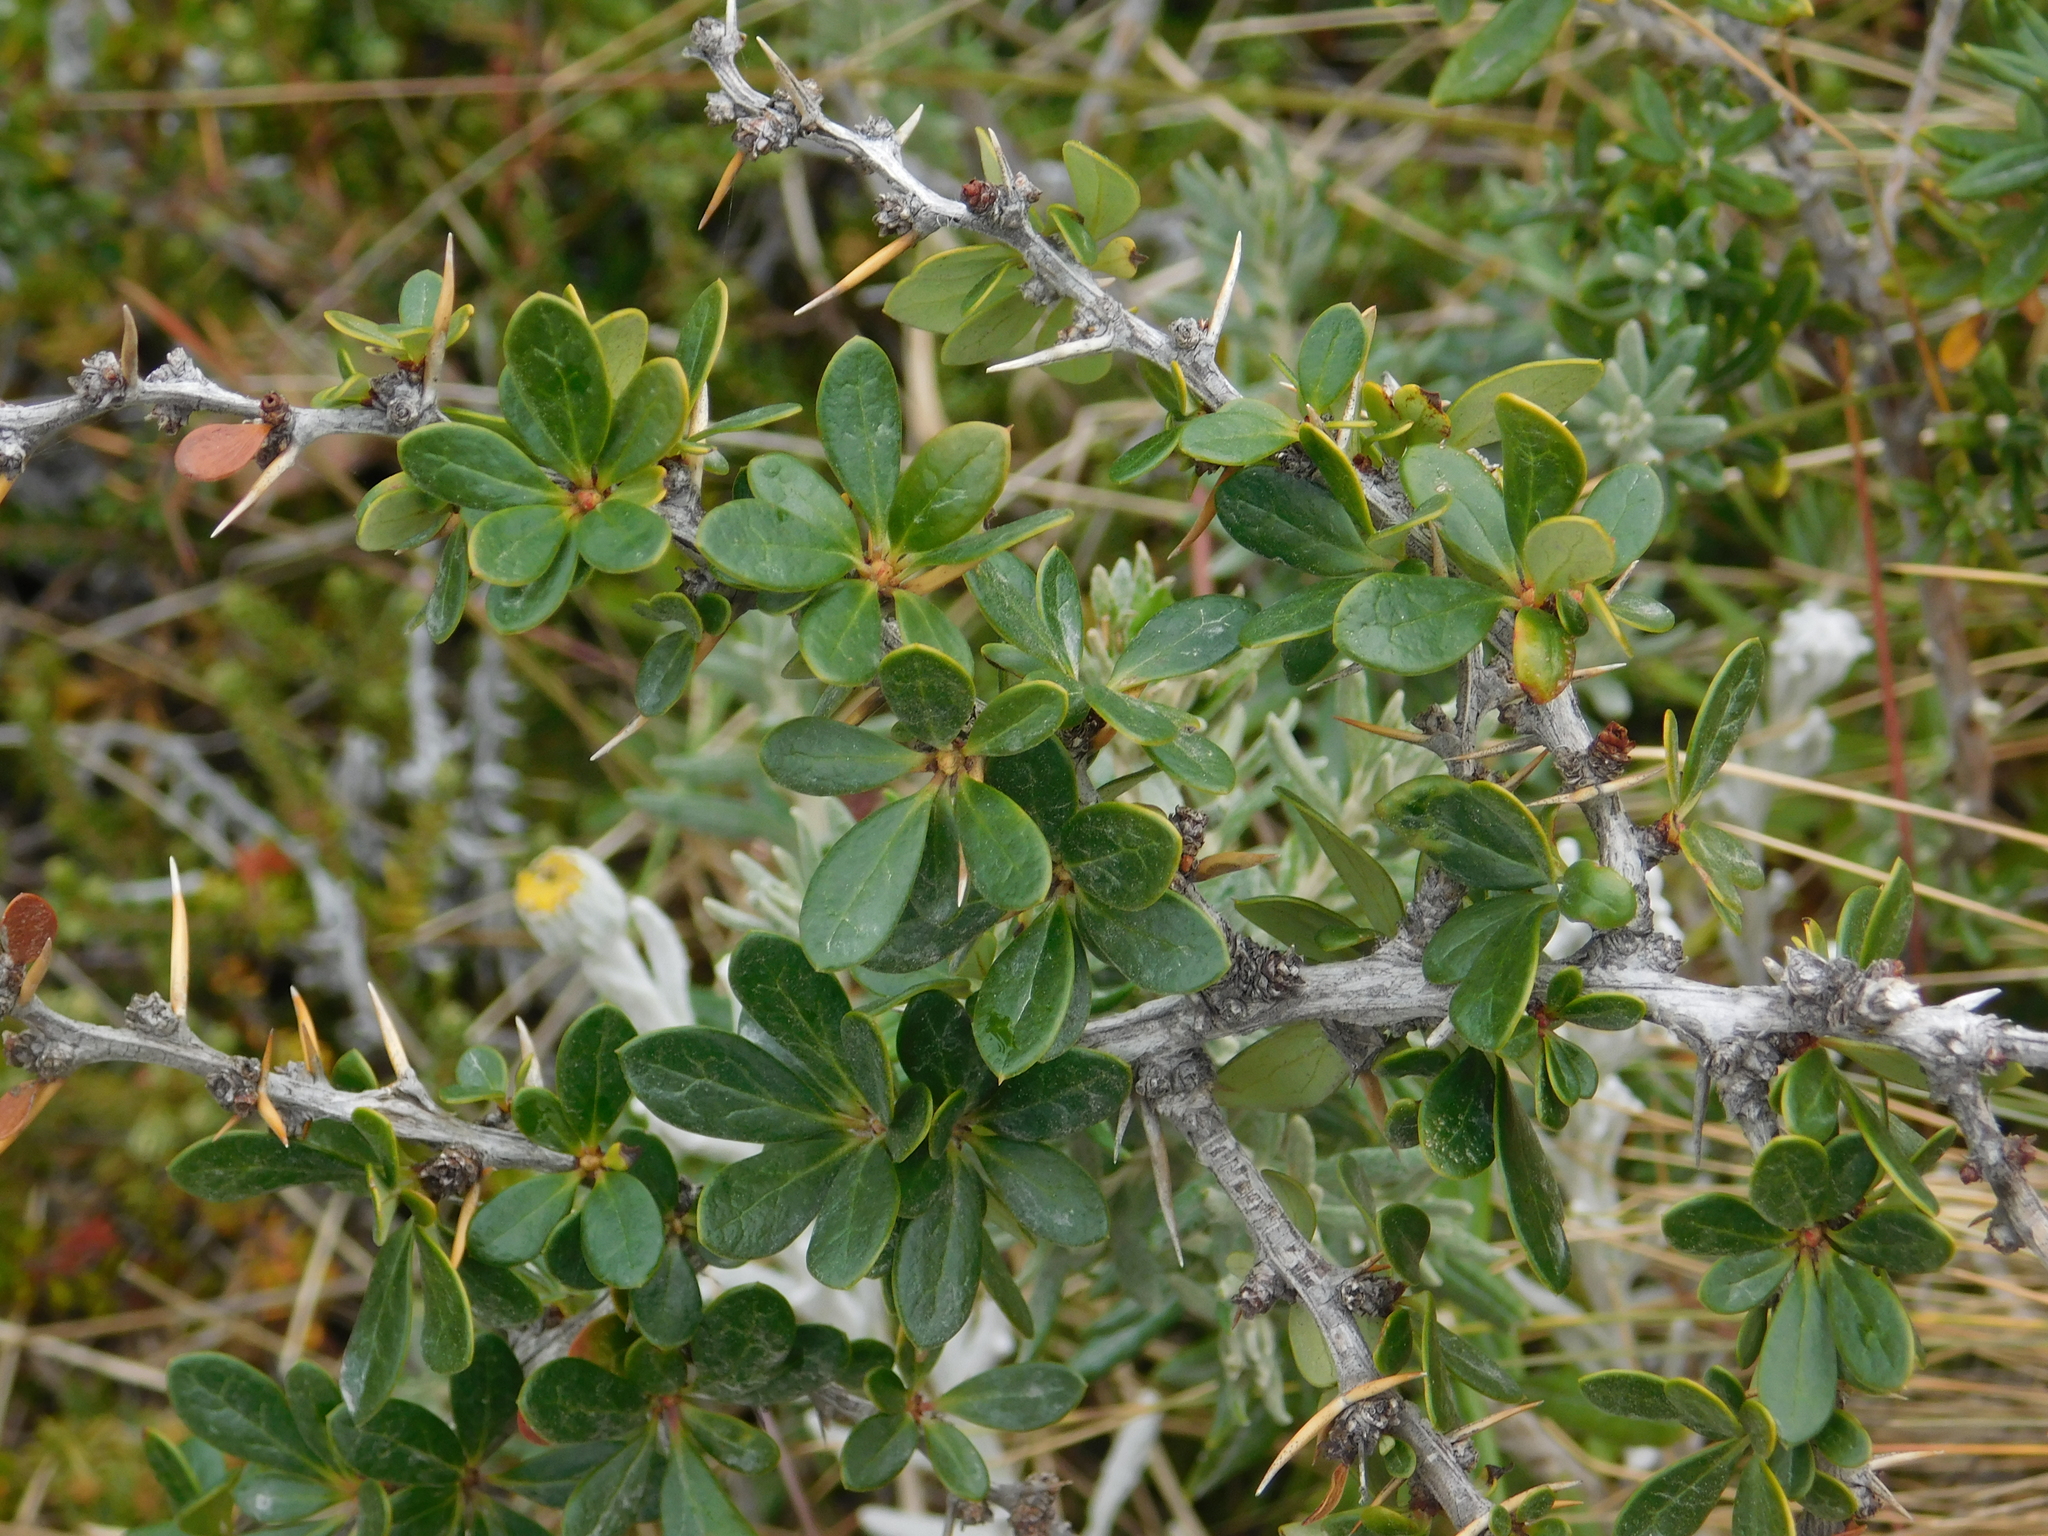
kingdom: Plantae
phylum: Tracheophyta
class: Magnoliopsida
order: Ranunculales
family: Berberidaceae
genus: Berberis
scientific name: Berberis microphylla
